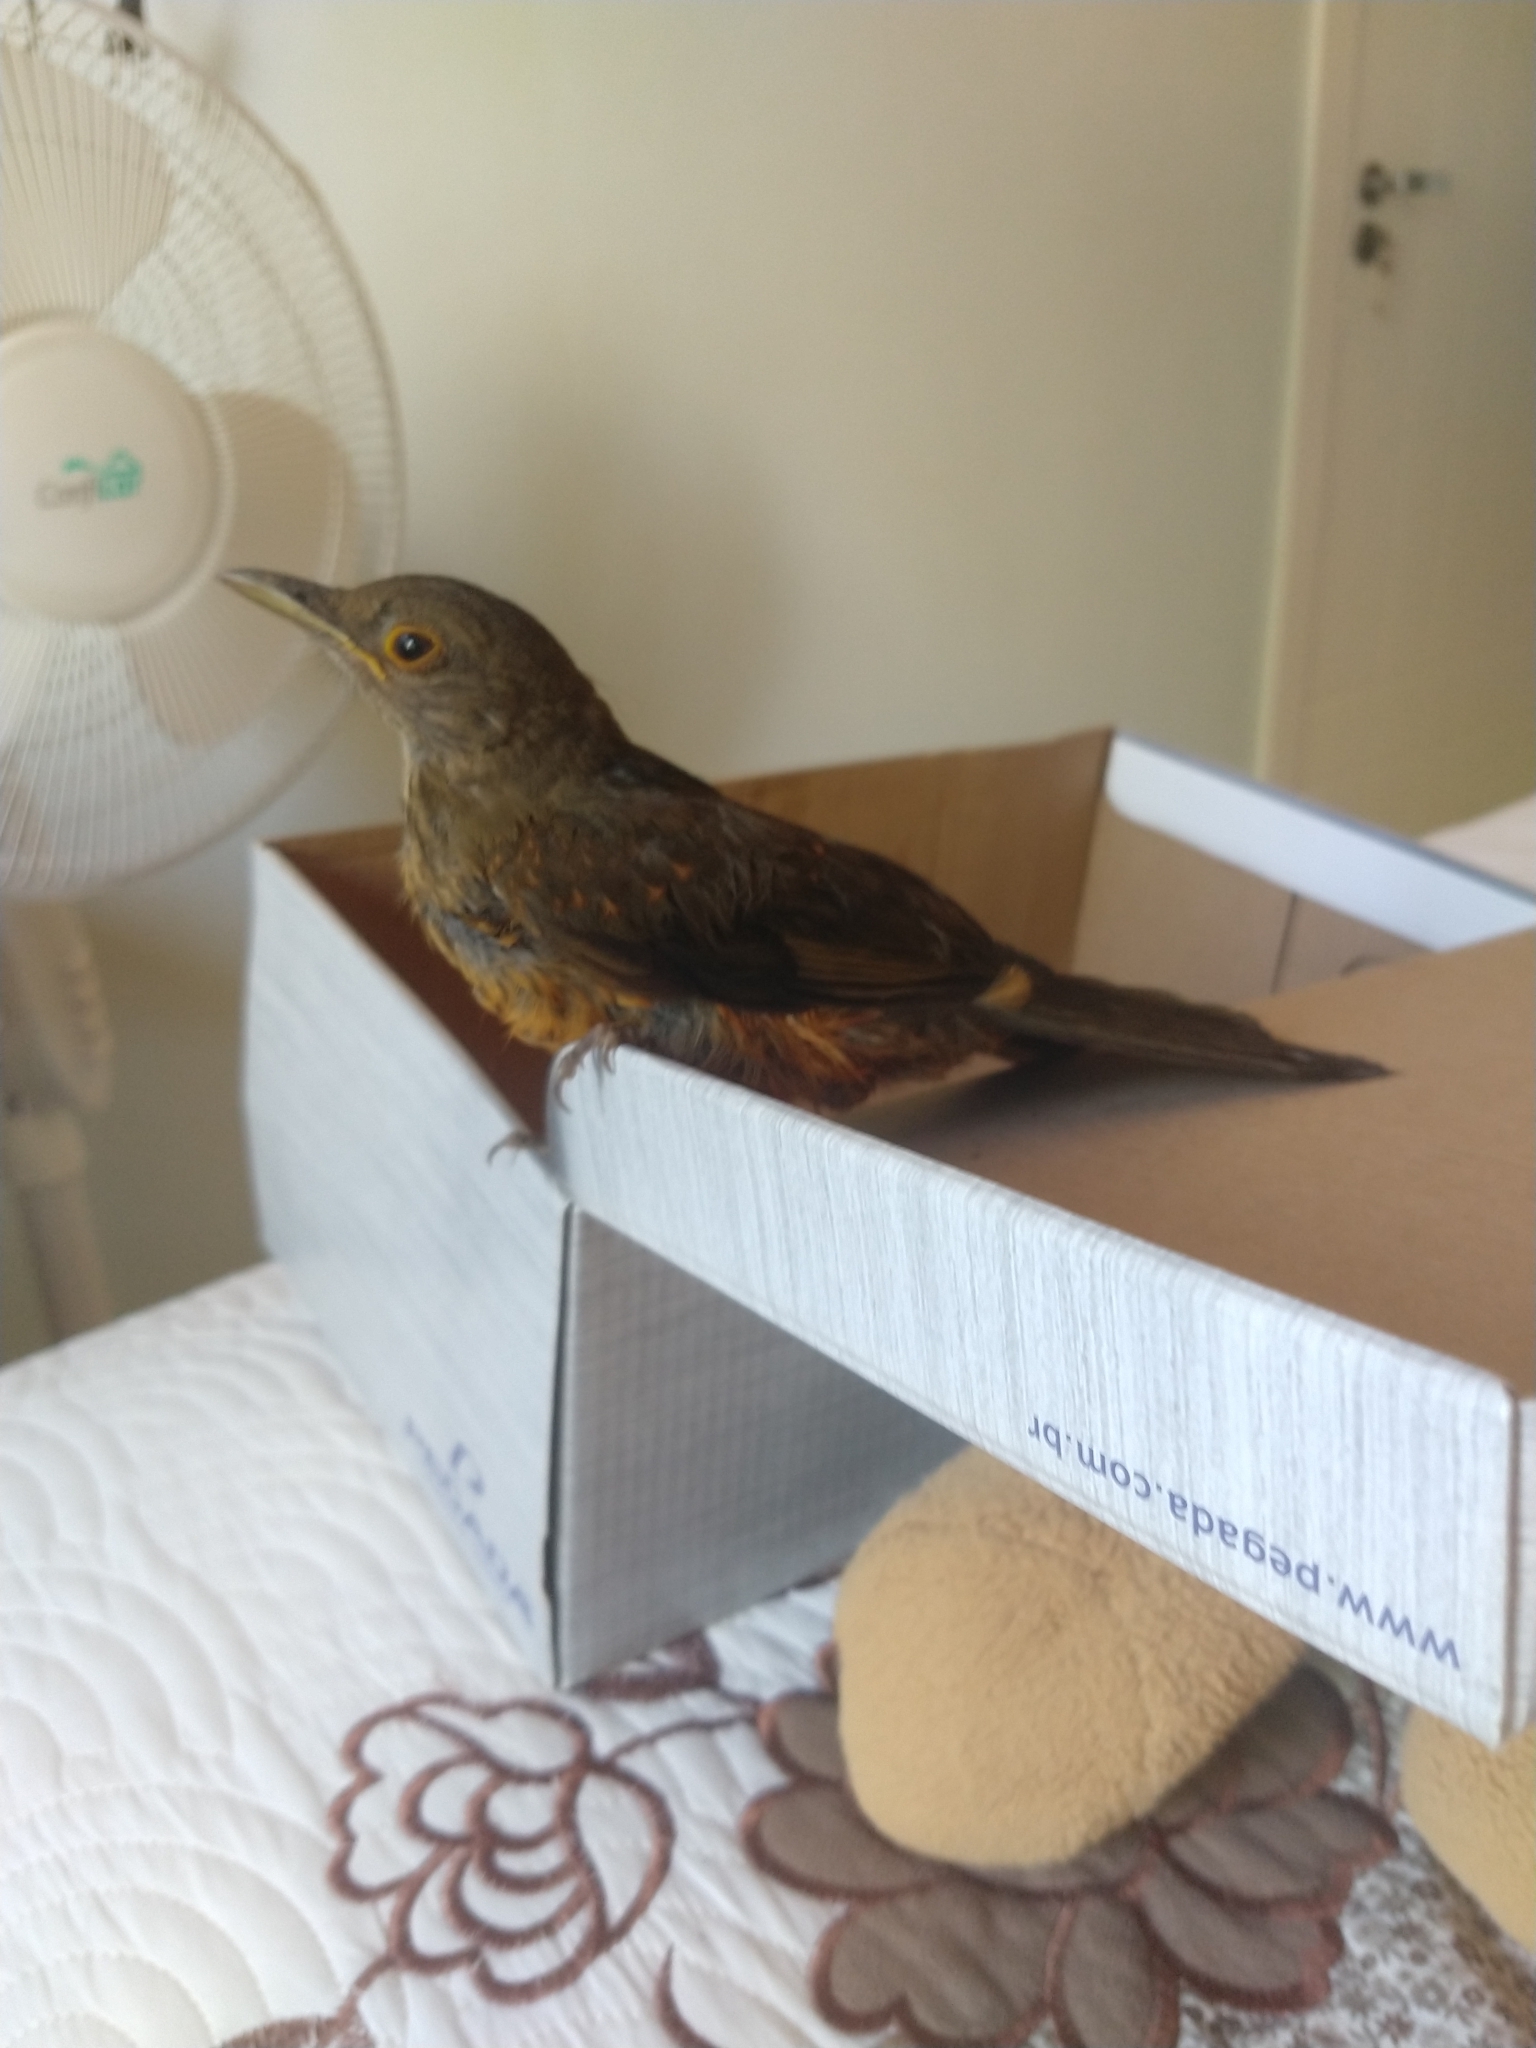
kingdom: Animalia
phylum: Chordata
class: Aves
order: Passeriformes
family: Turdidae
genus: Turdus
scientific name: Turdus rufiventris
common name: Rufous-bellied thrush
